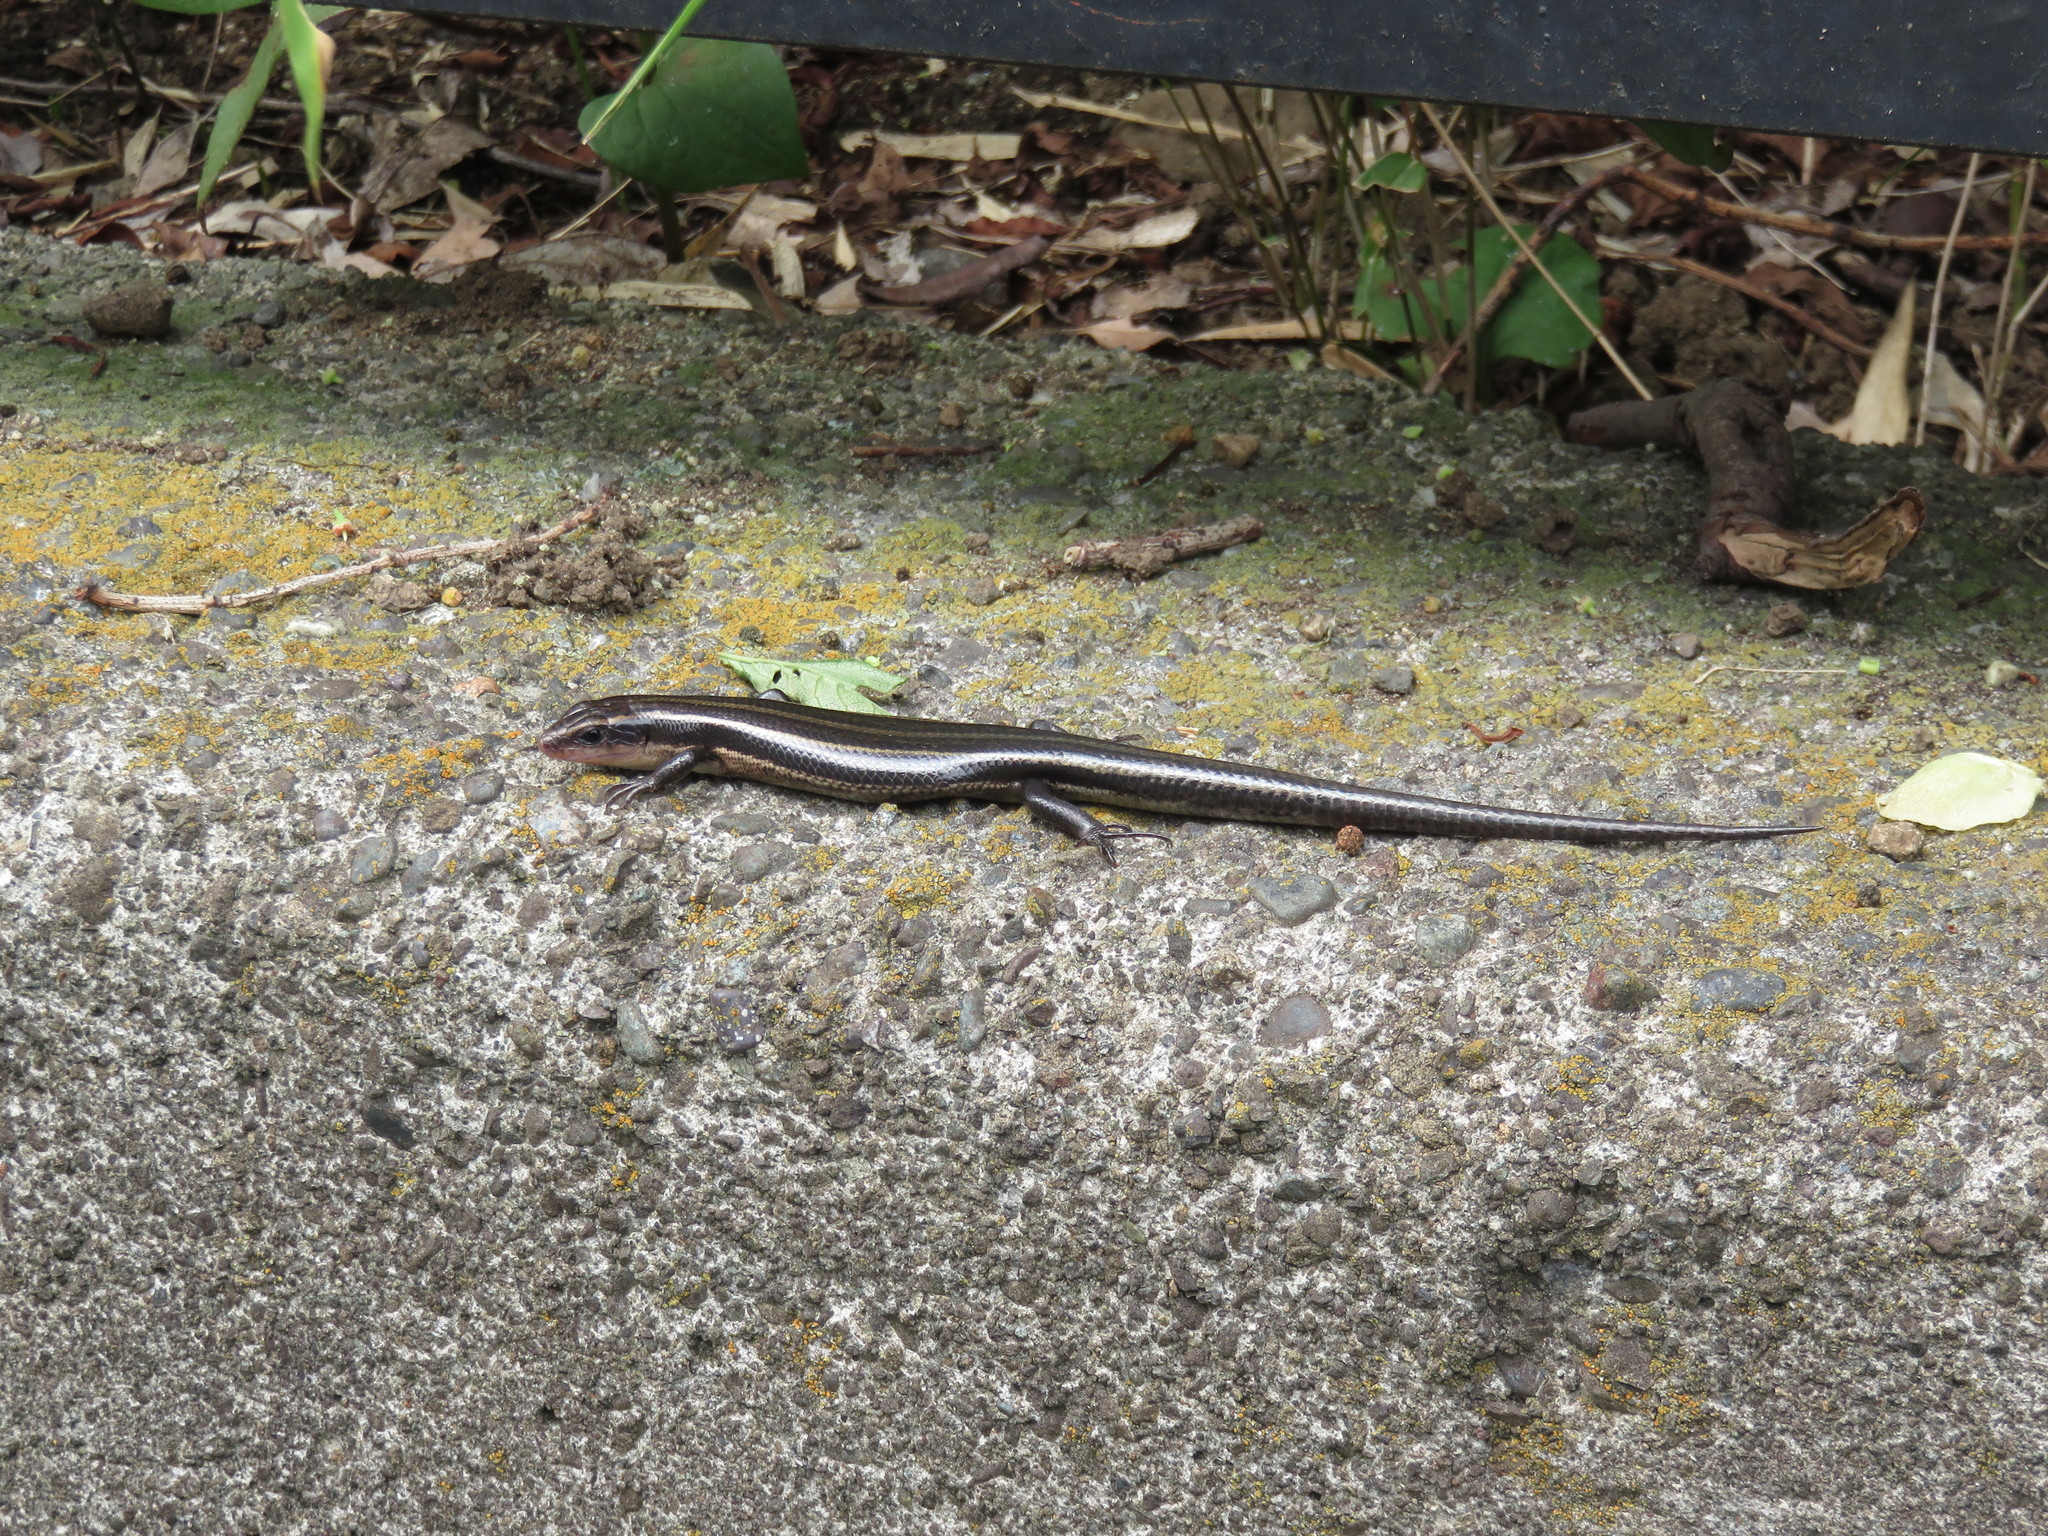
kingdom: Animalia
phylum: Chordata
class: Squamata
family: Scincidae
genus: Plestiodon
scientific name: Plestiodon finitimus
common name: Far eastern skink
